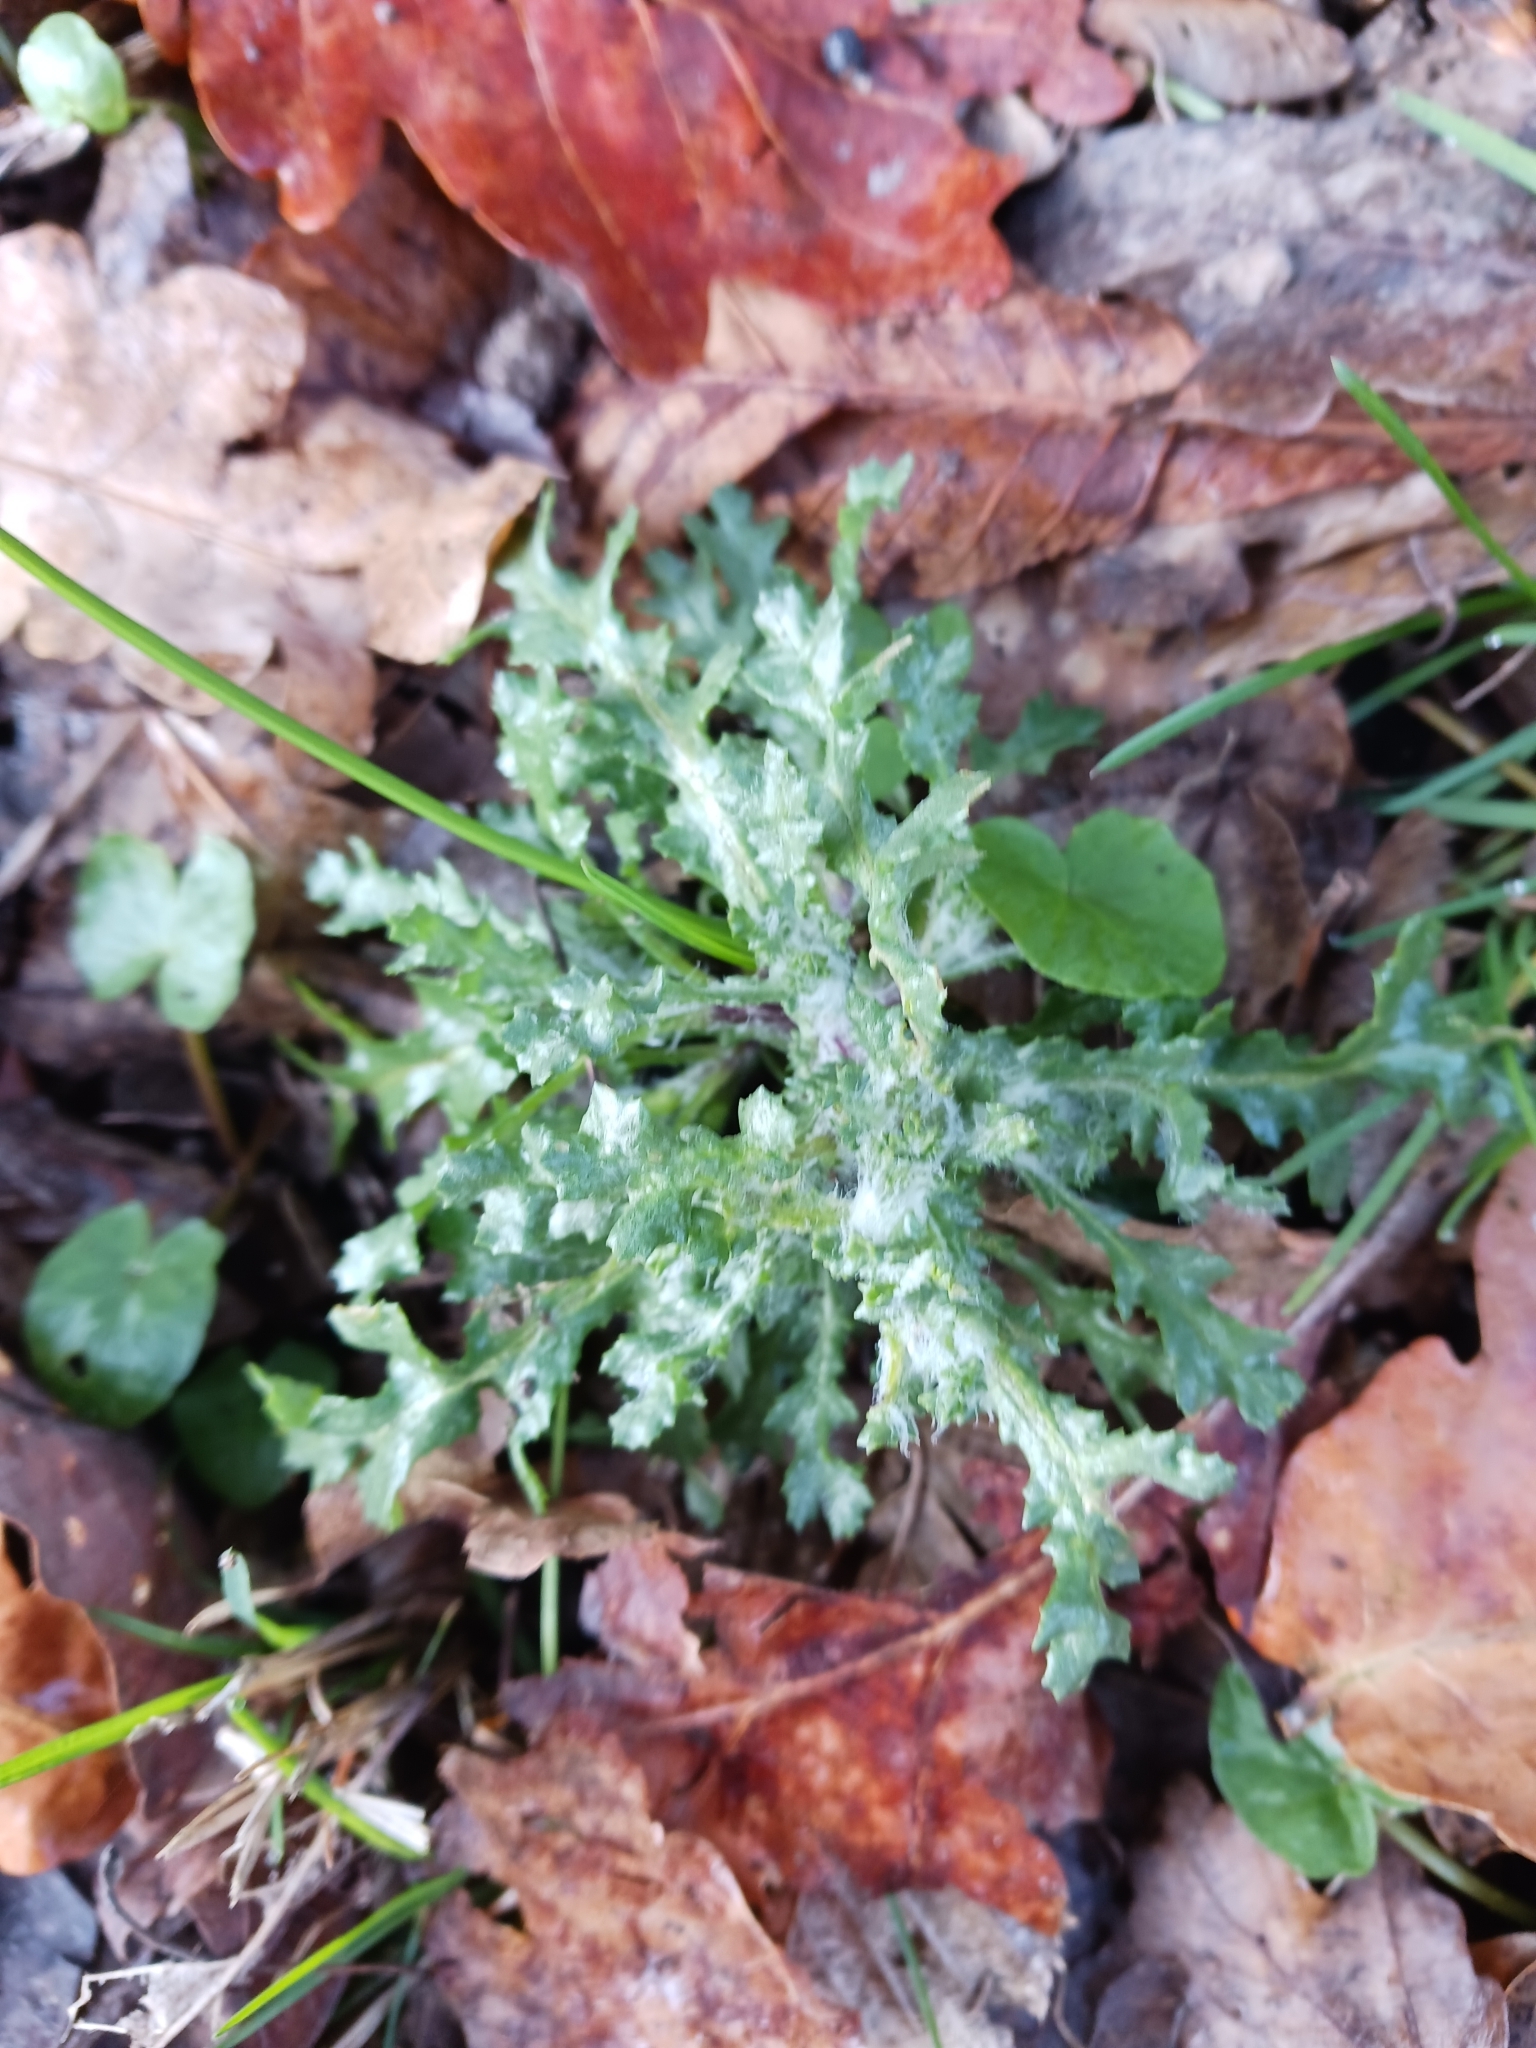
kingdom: Plantae
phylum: Tracheophyta
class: Magnoliopsida
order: Asterales
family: Asteraceae
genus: Senecio
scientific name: Senecio vulgaris
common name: Old-man-in-the-spring
